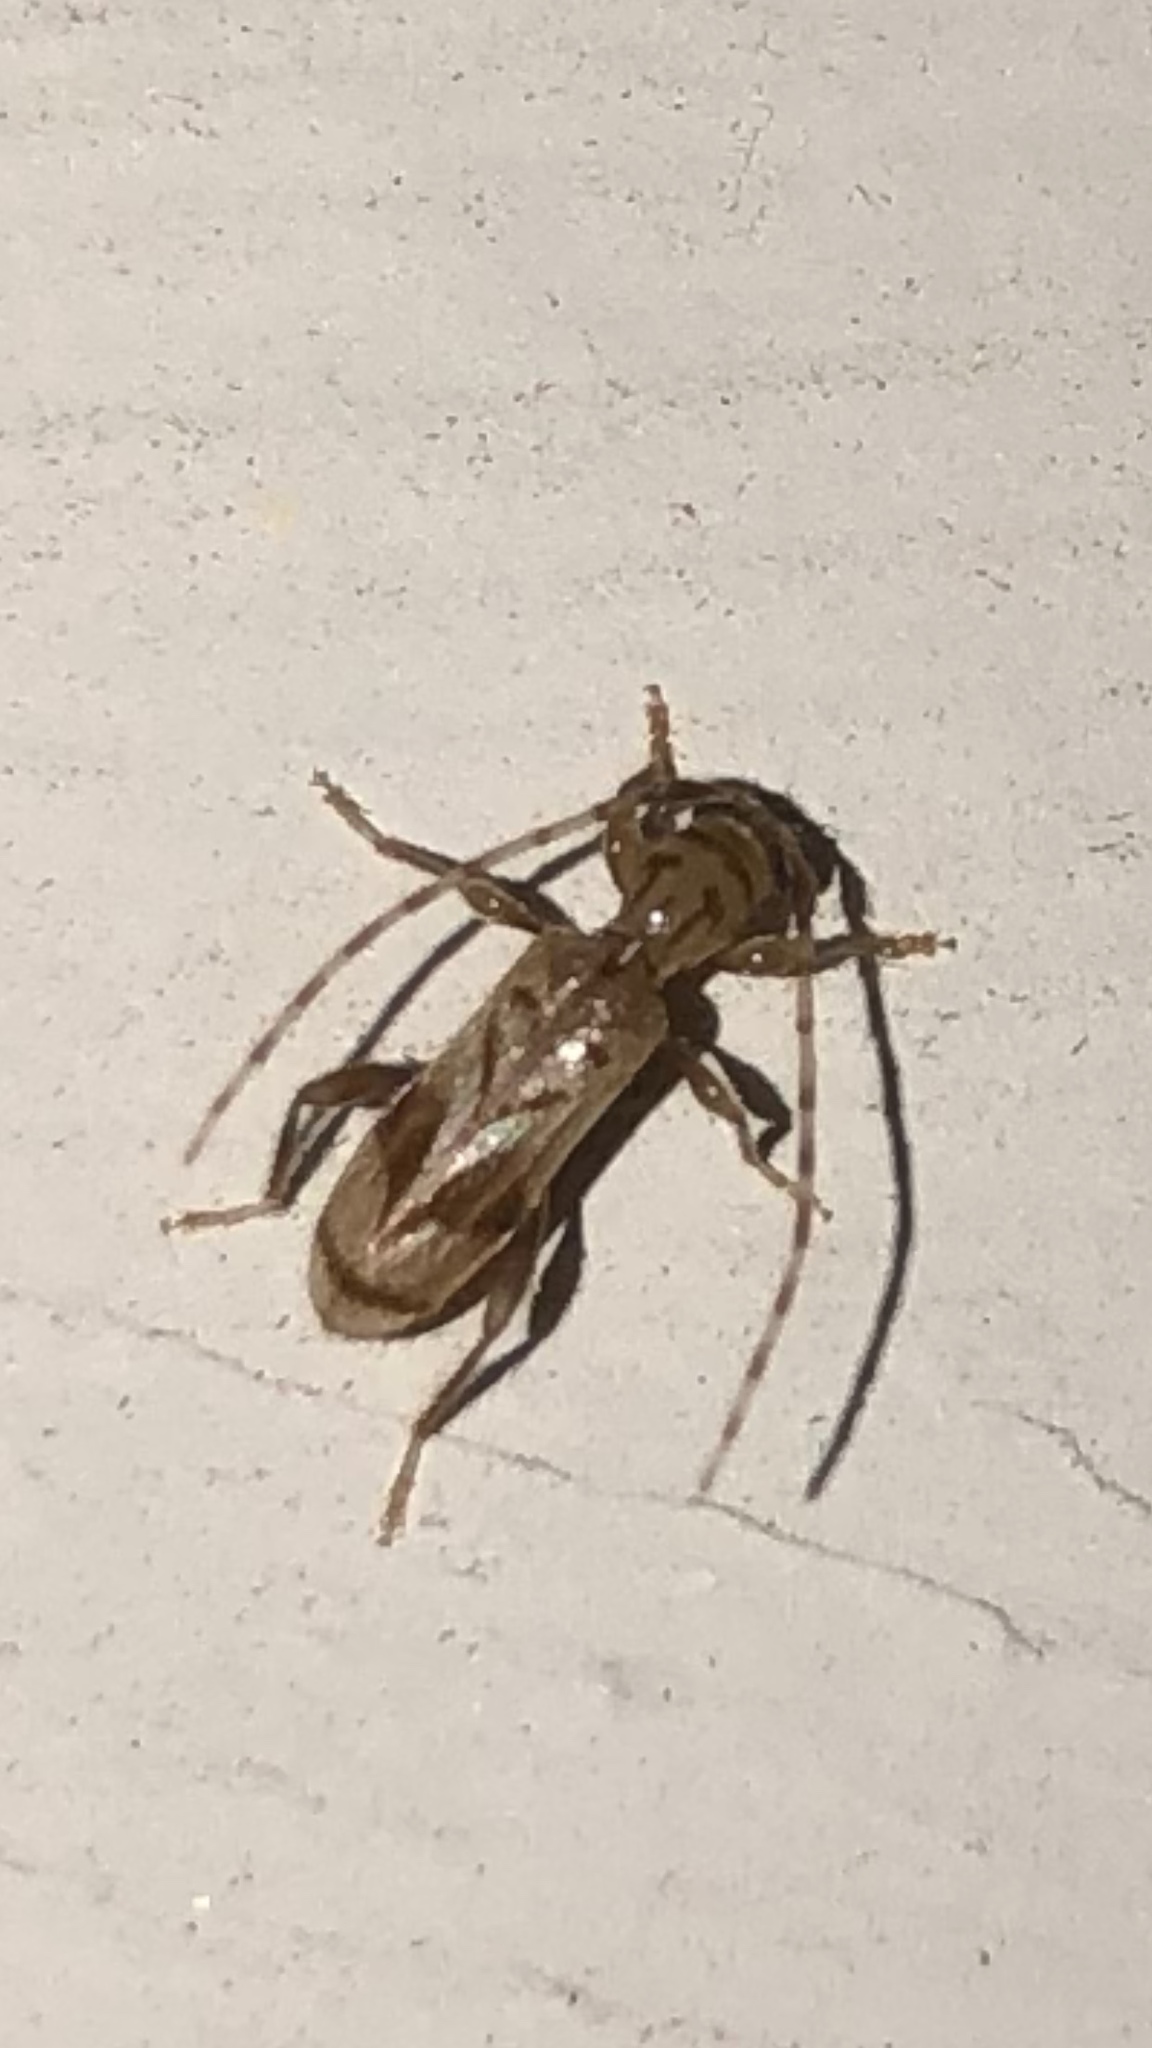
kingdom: Animalia
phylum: Arthropoda
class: Insecta
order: Coleoptera
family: Cerambycidae
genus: Obrium
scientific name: Obrium maculatum
